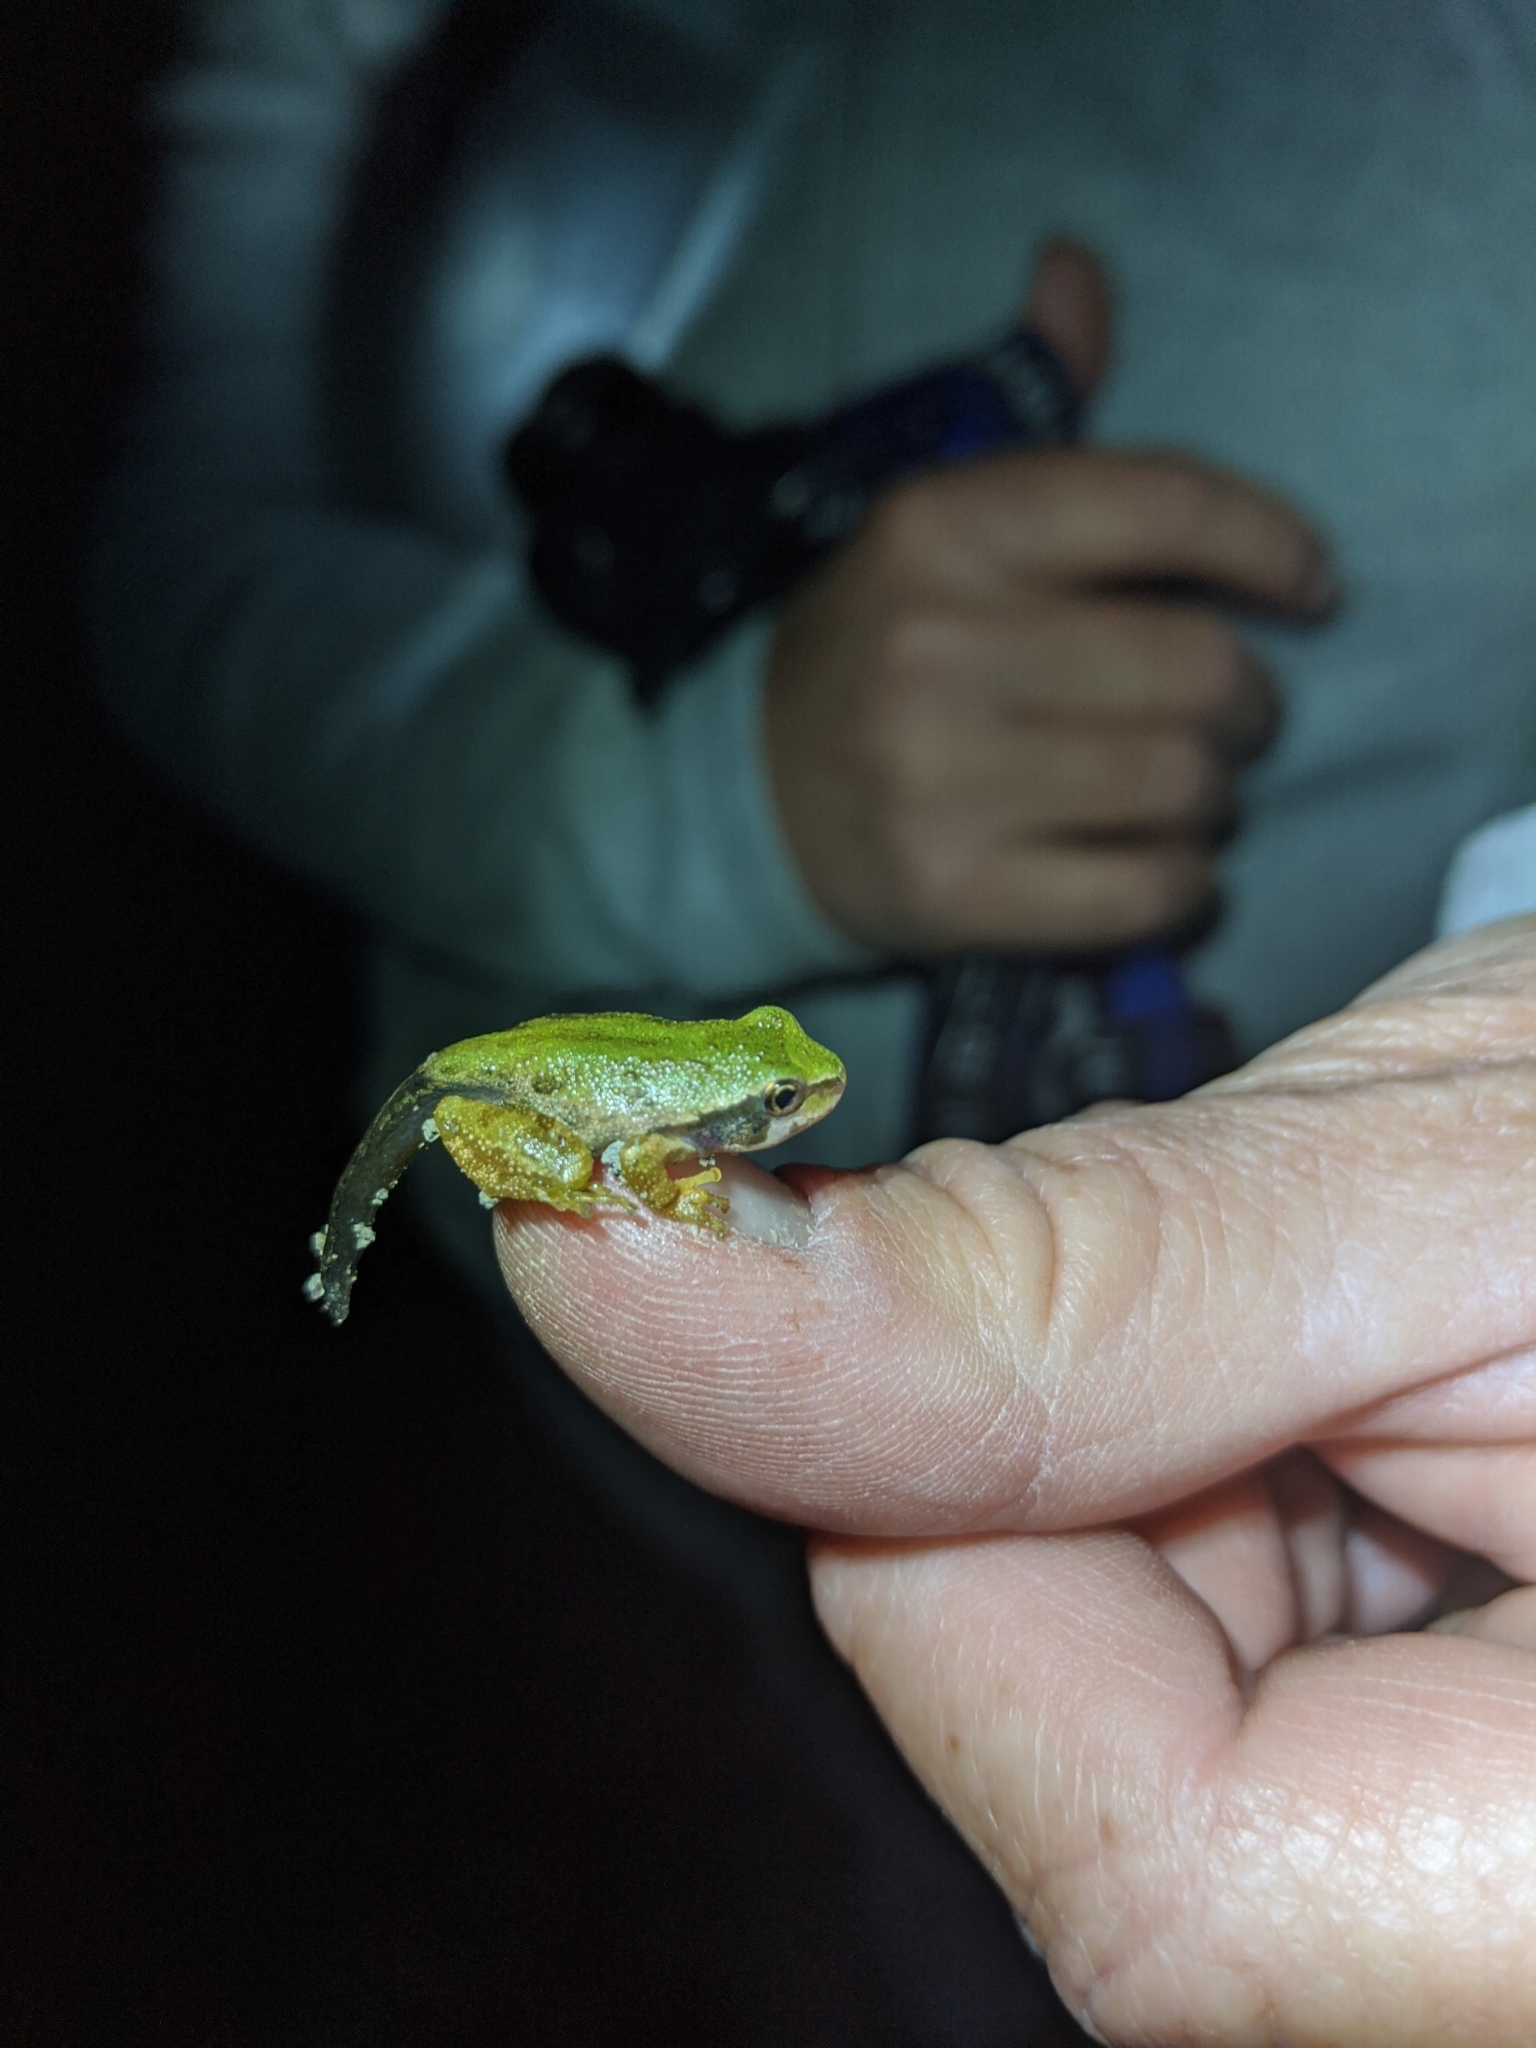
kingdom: Animalia
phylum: Chordata
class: Amphibia
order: Anura
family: Hylidae
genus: Pseudacris
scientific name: Pseudacris regilla
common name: Pacific chorus frog
